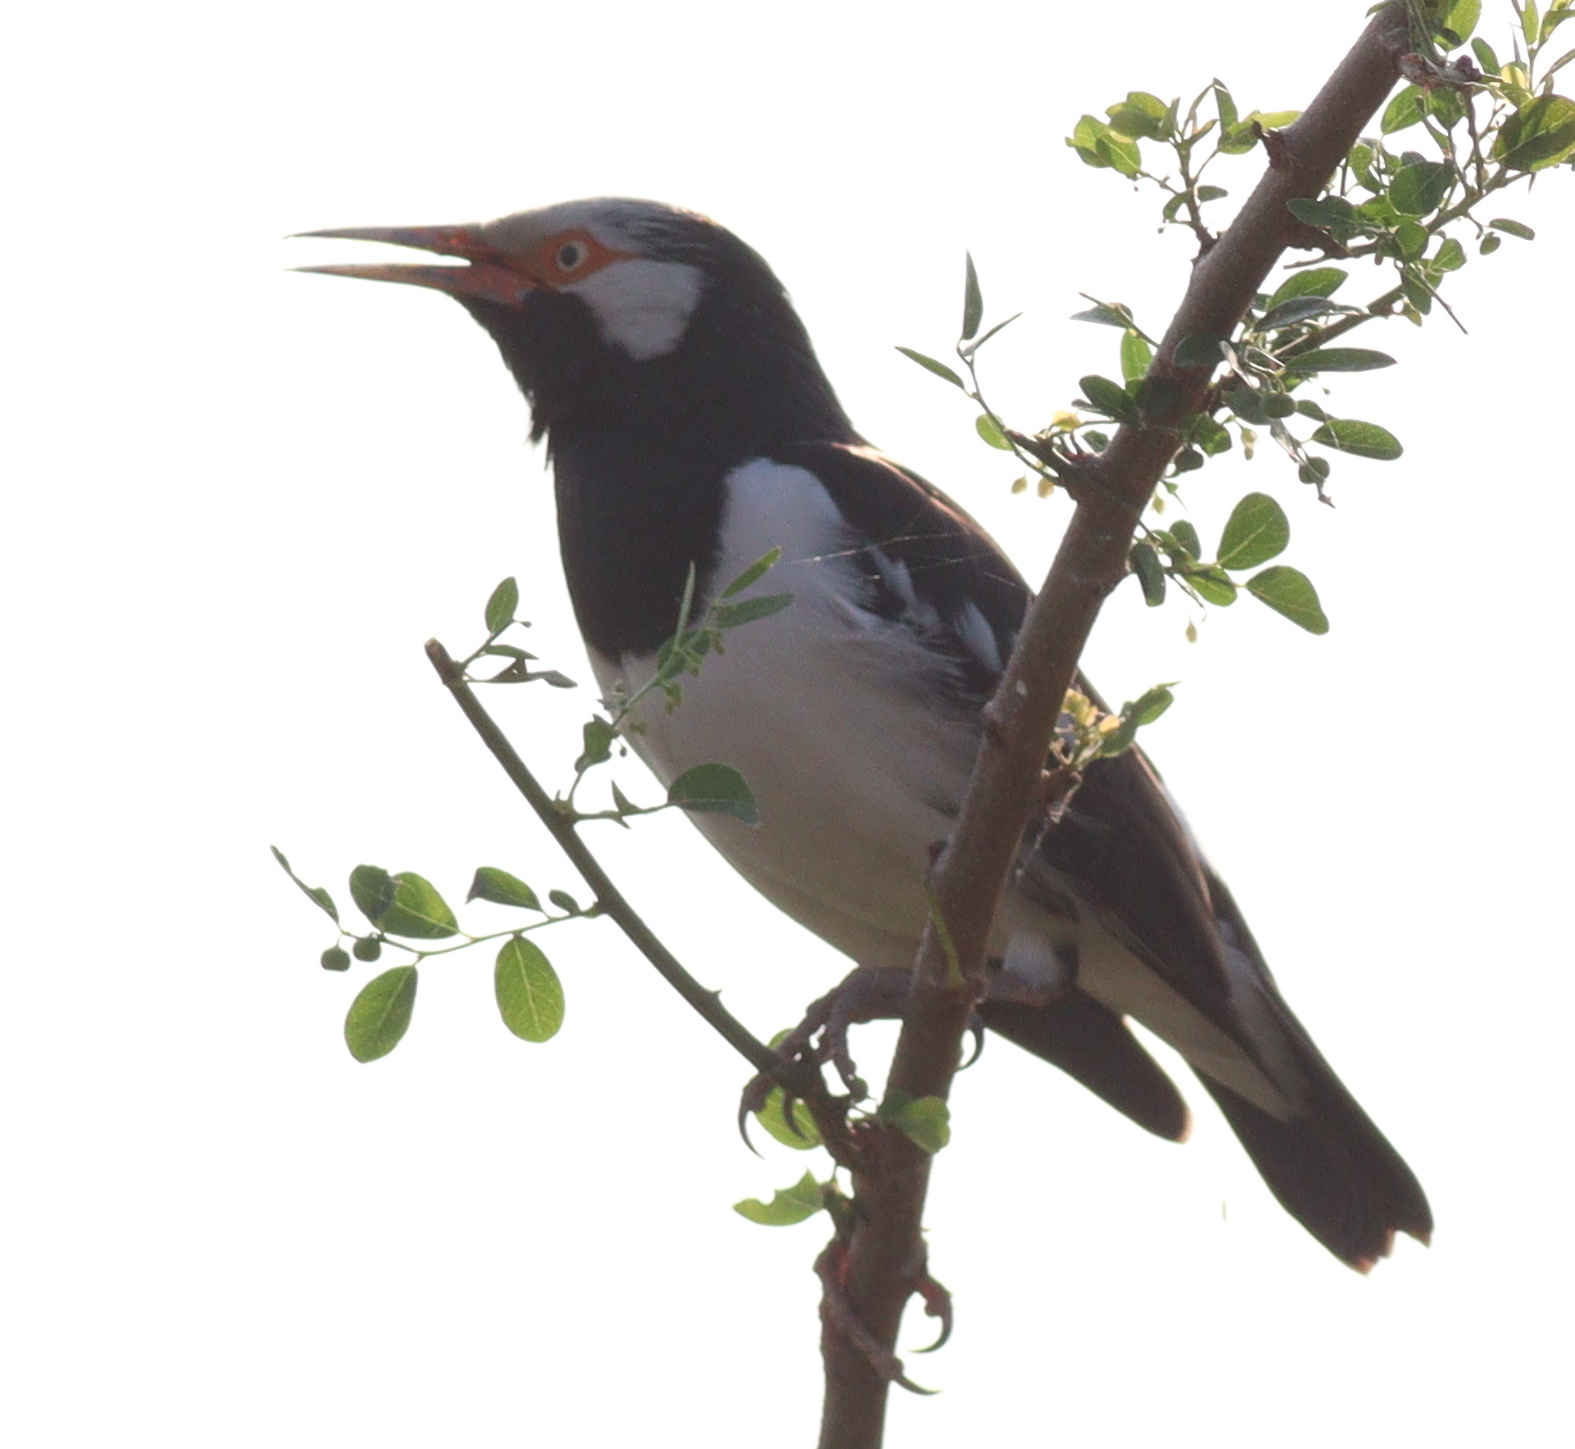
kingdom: Animalia
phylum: Chordata
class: Aves
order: Passeriformes
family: Sturnidae
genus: Gracupica
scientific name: Gracupica contra
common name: Pied myna
